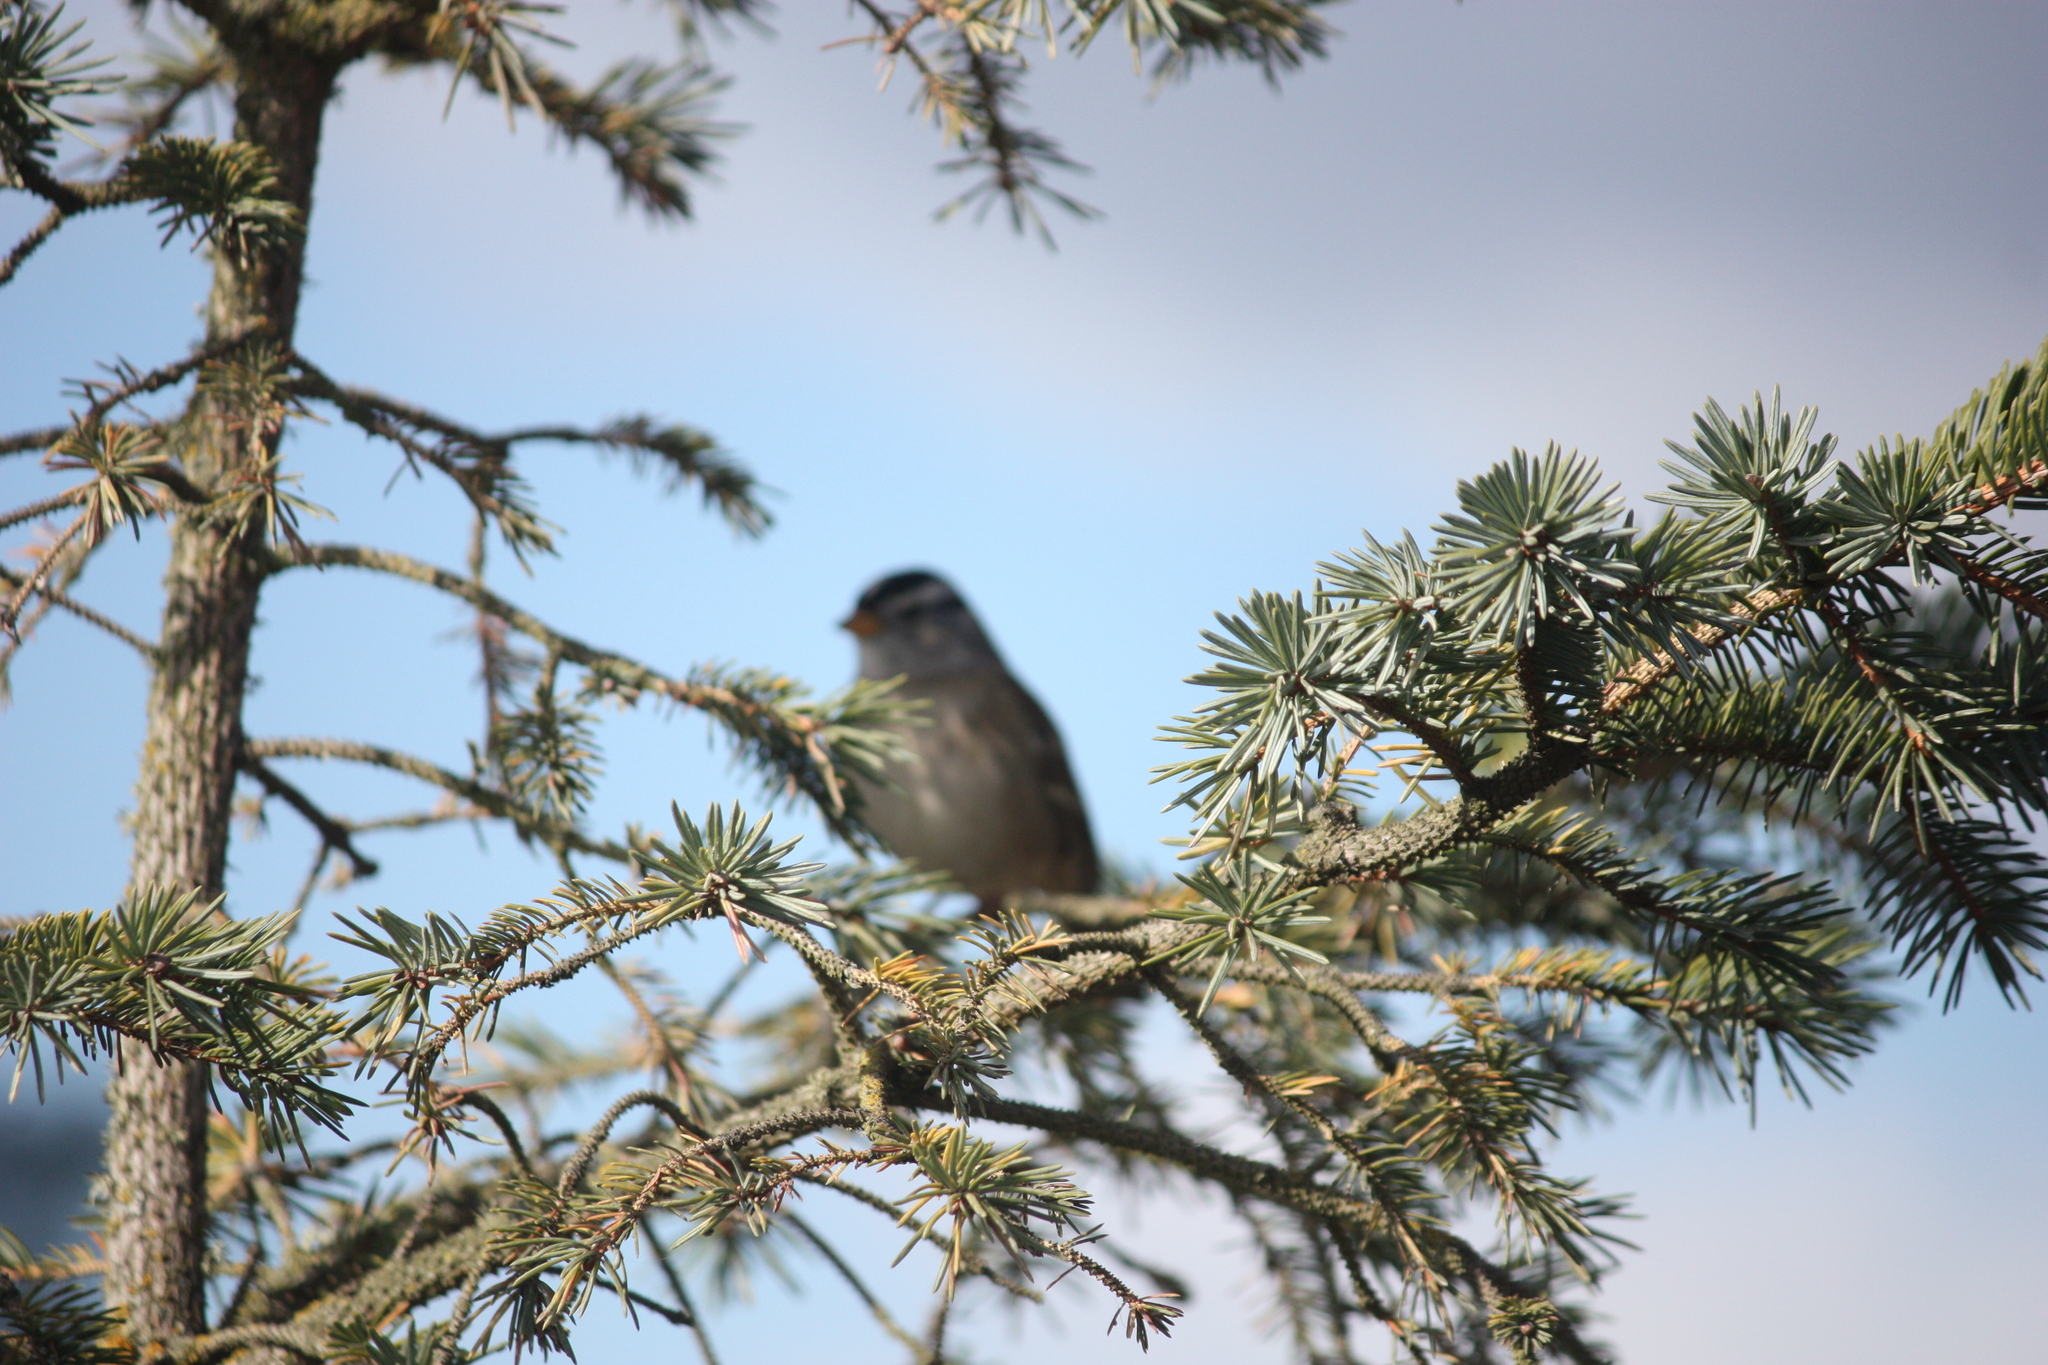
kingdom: Animalia
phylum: Chordata
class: Aves
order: Passeriformes
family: Passerellidae
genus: Zonotrichia
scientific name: Zonotrichia leucophrys
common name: White-crowned sparrow
